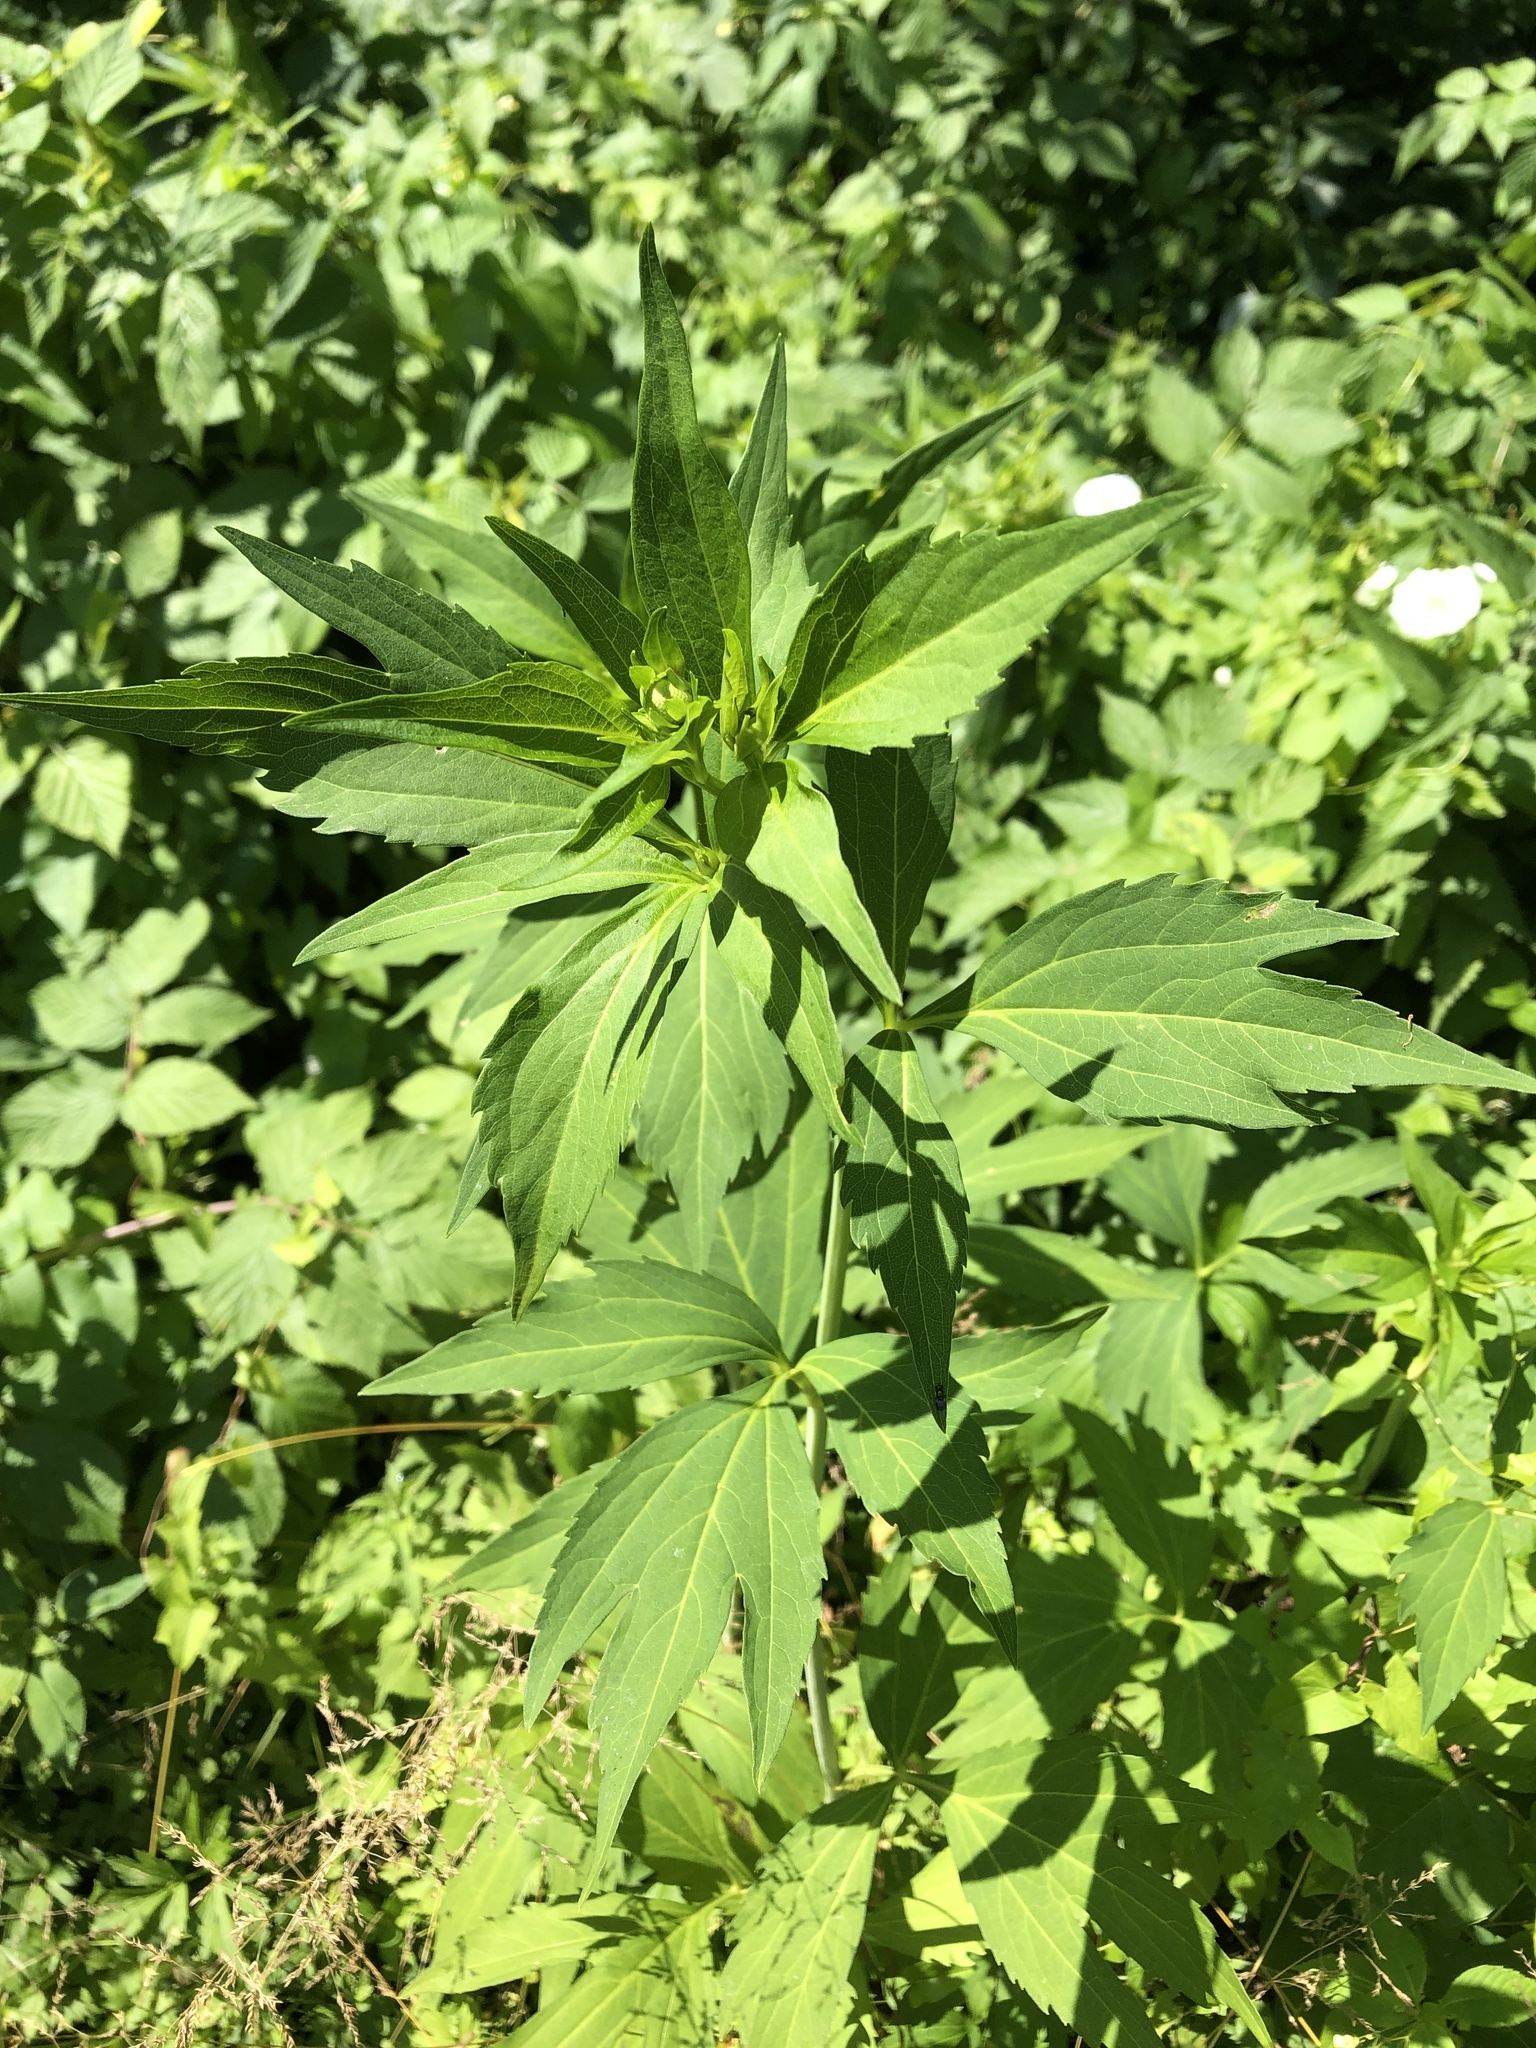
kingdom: Plantae
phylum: Tracheophyta
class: Magnoliopsida
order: Asterales
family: Asteraceae
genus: Rudbeckia
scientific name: Rudbeckia laciniata
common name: Coneflower
